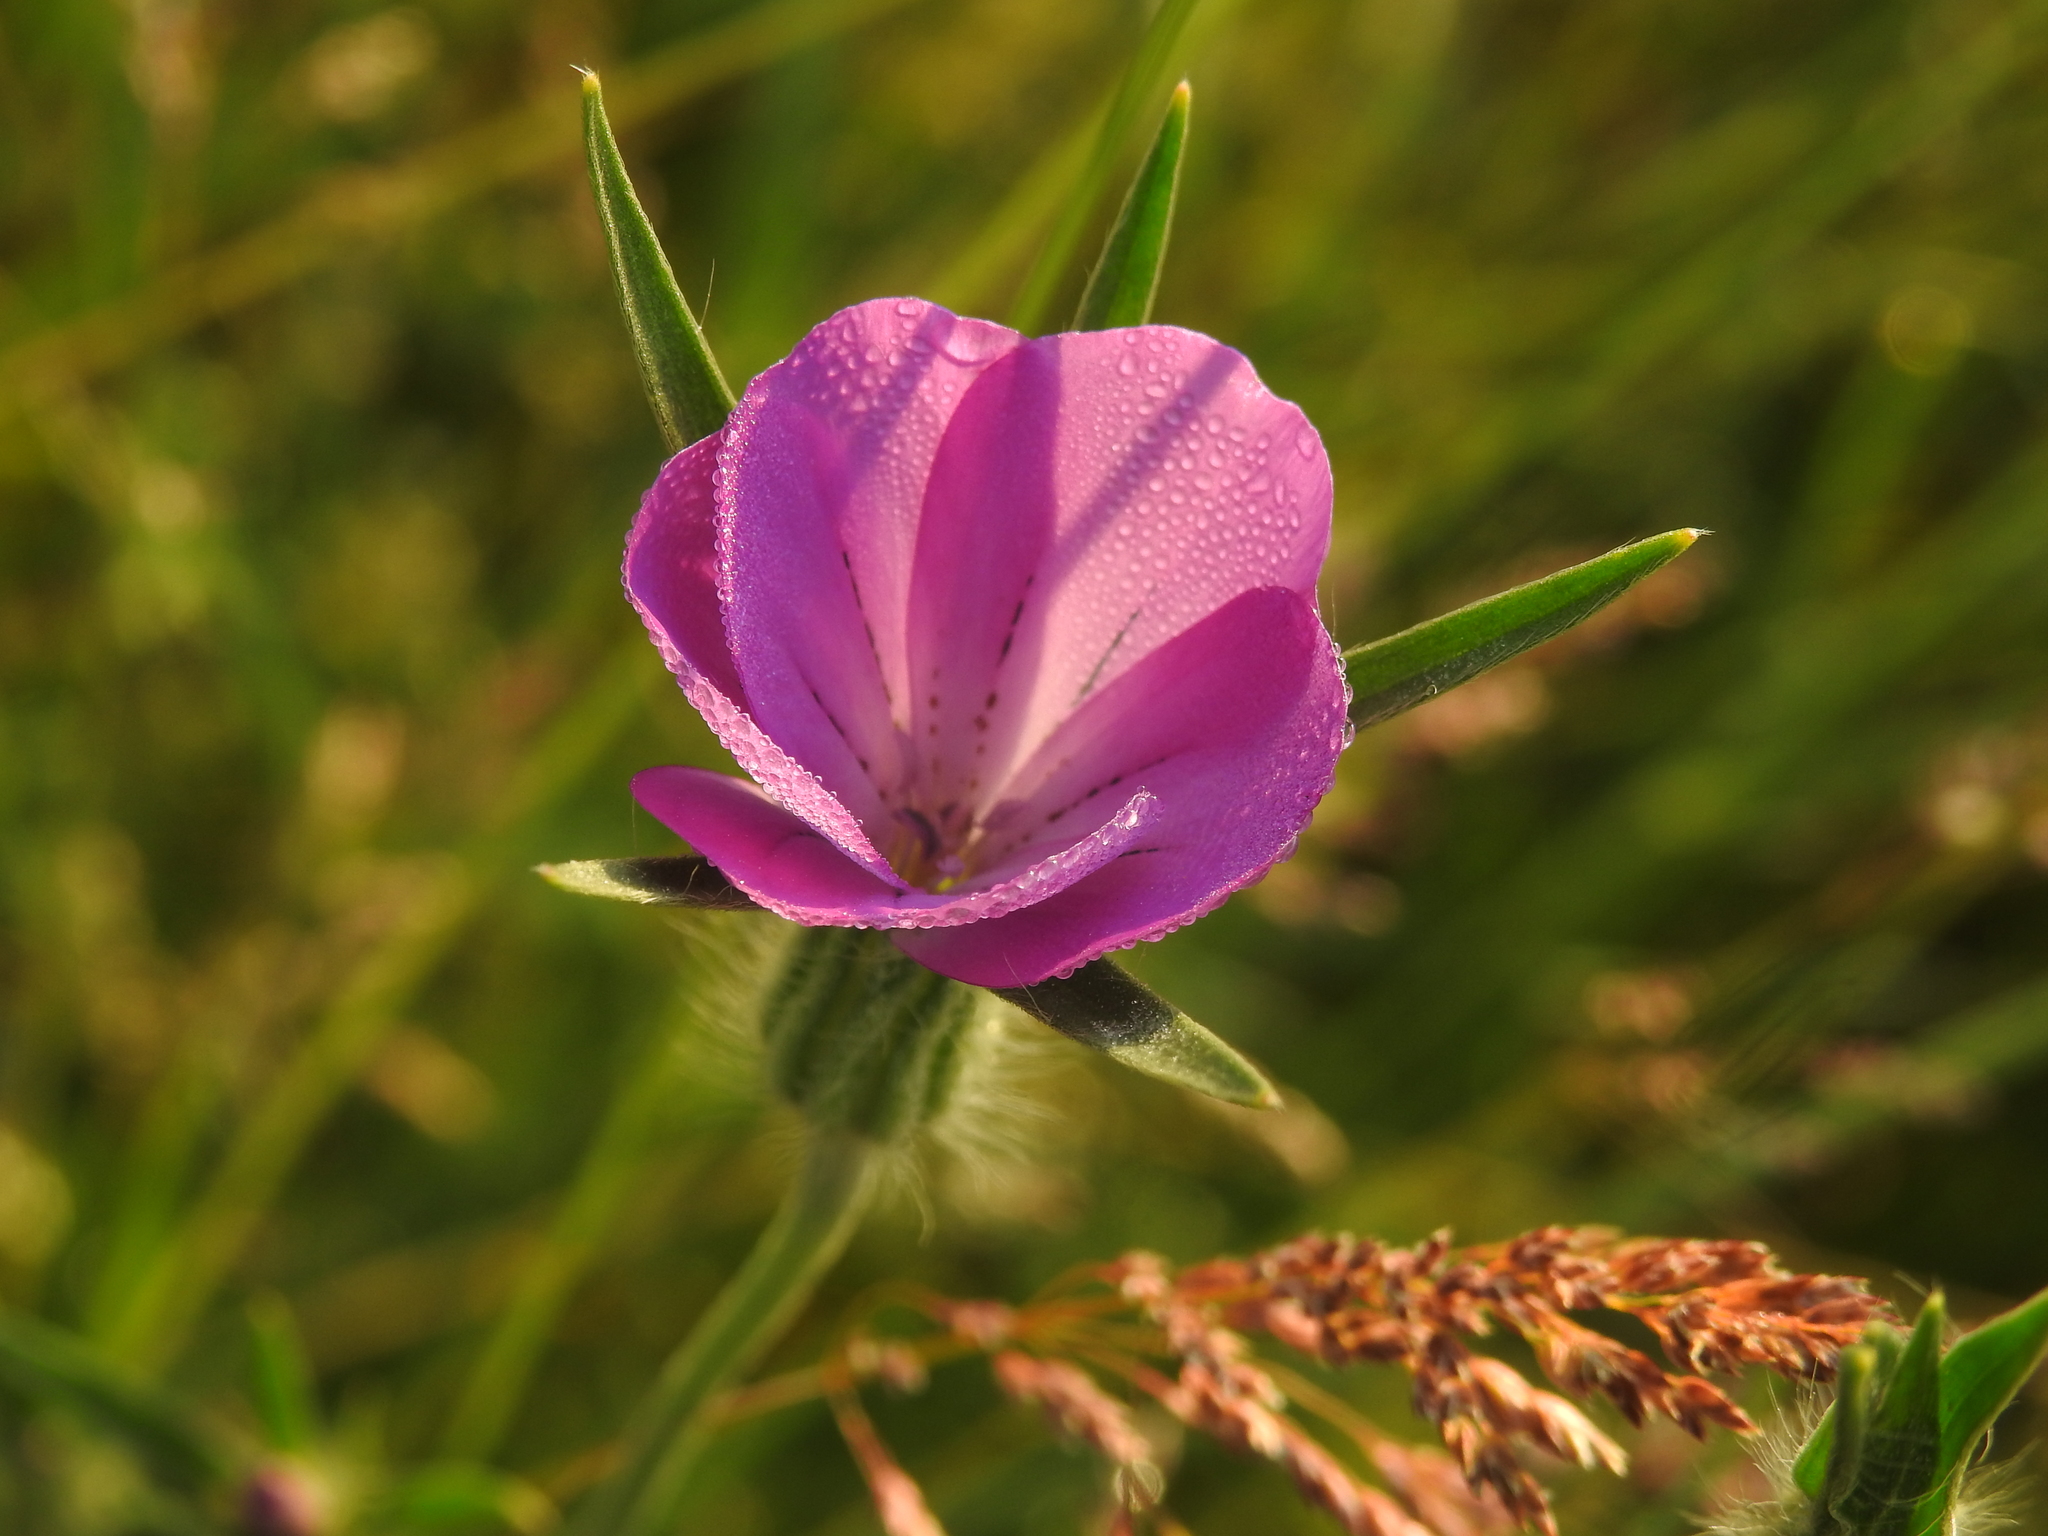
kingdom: Plantae
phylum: Tracheophyta
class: Magnoliopsida
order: Caryophyllales
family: Caryophyllaceae
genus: Agrostemma
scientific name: Agrostemma githago
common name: Common corncockle
